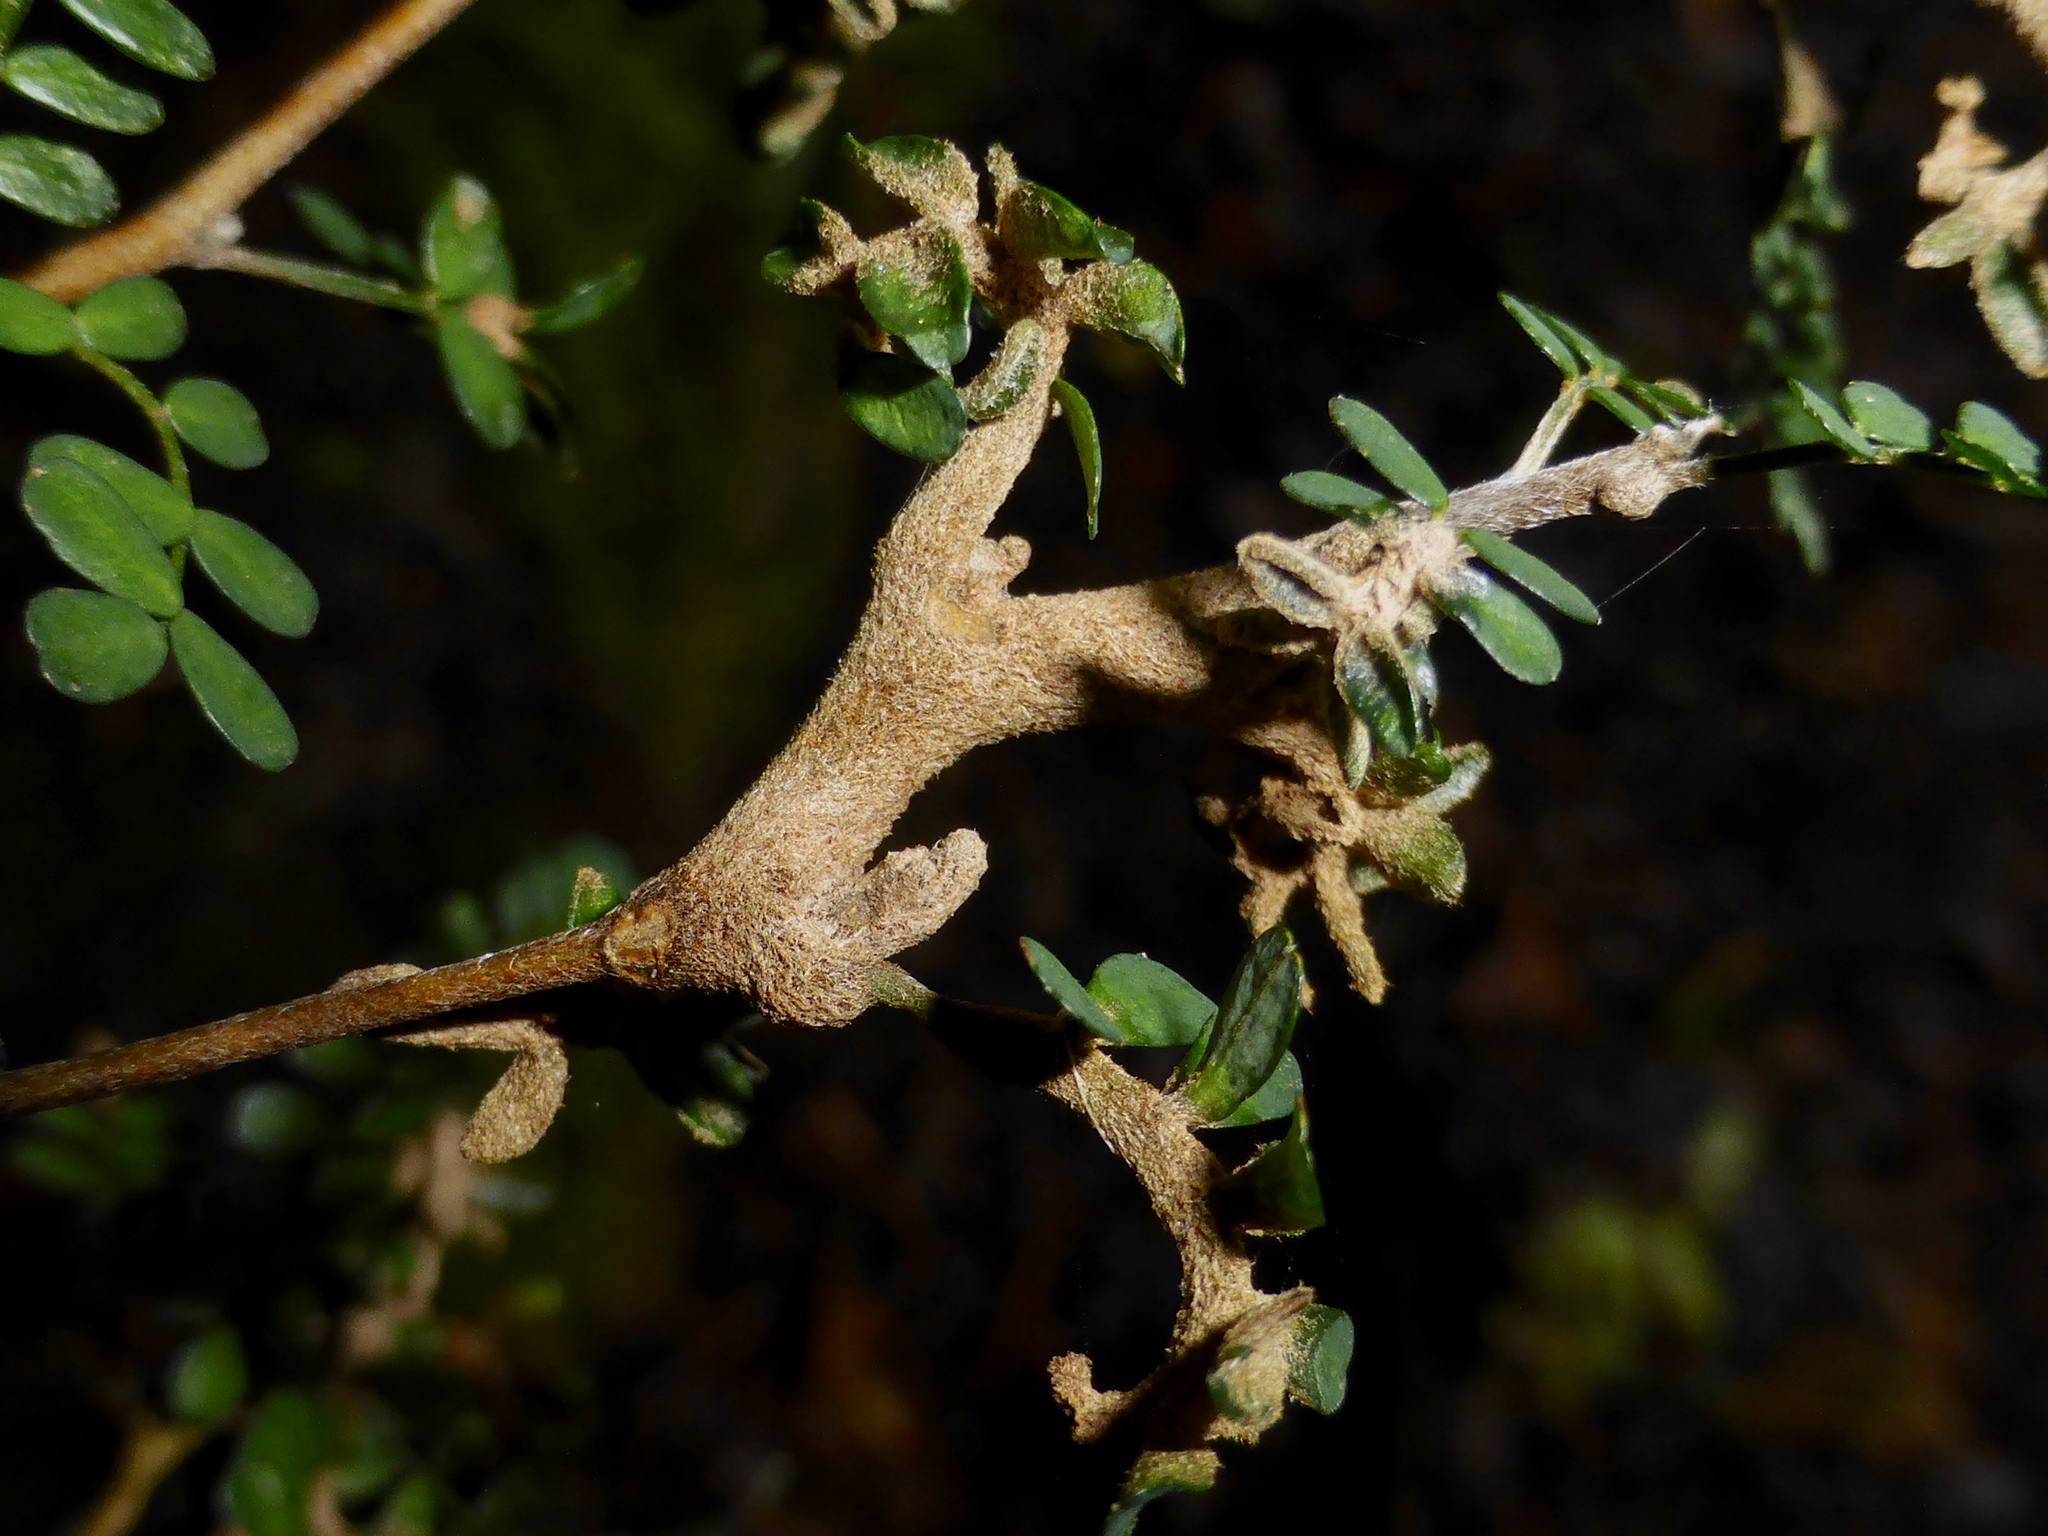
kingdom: Fungi
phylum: Basidiomycota
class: Pucciniomycetes
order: Pucciniales
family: Pucciniaceae
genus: Uromyces
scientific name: Uromyces edwardsiae
